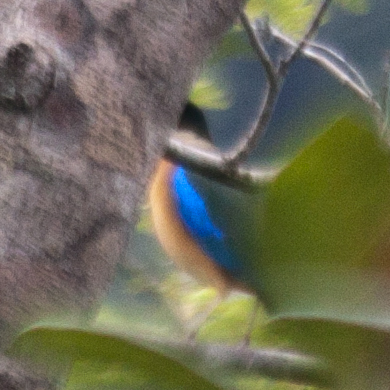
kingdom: Animalia
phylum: Chordata
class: Aves
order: Passeriformes
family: Pittidae
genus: Pitta
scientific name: Pitta moluccensis
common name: Blue-winged pitta
